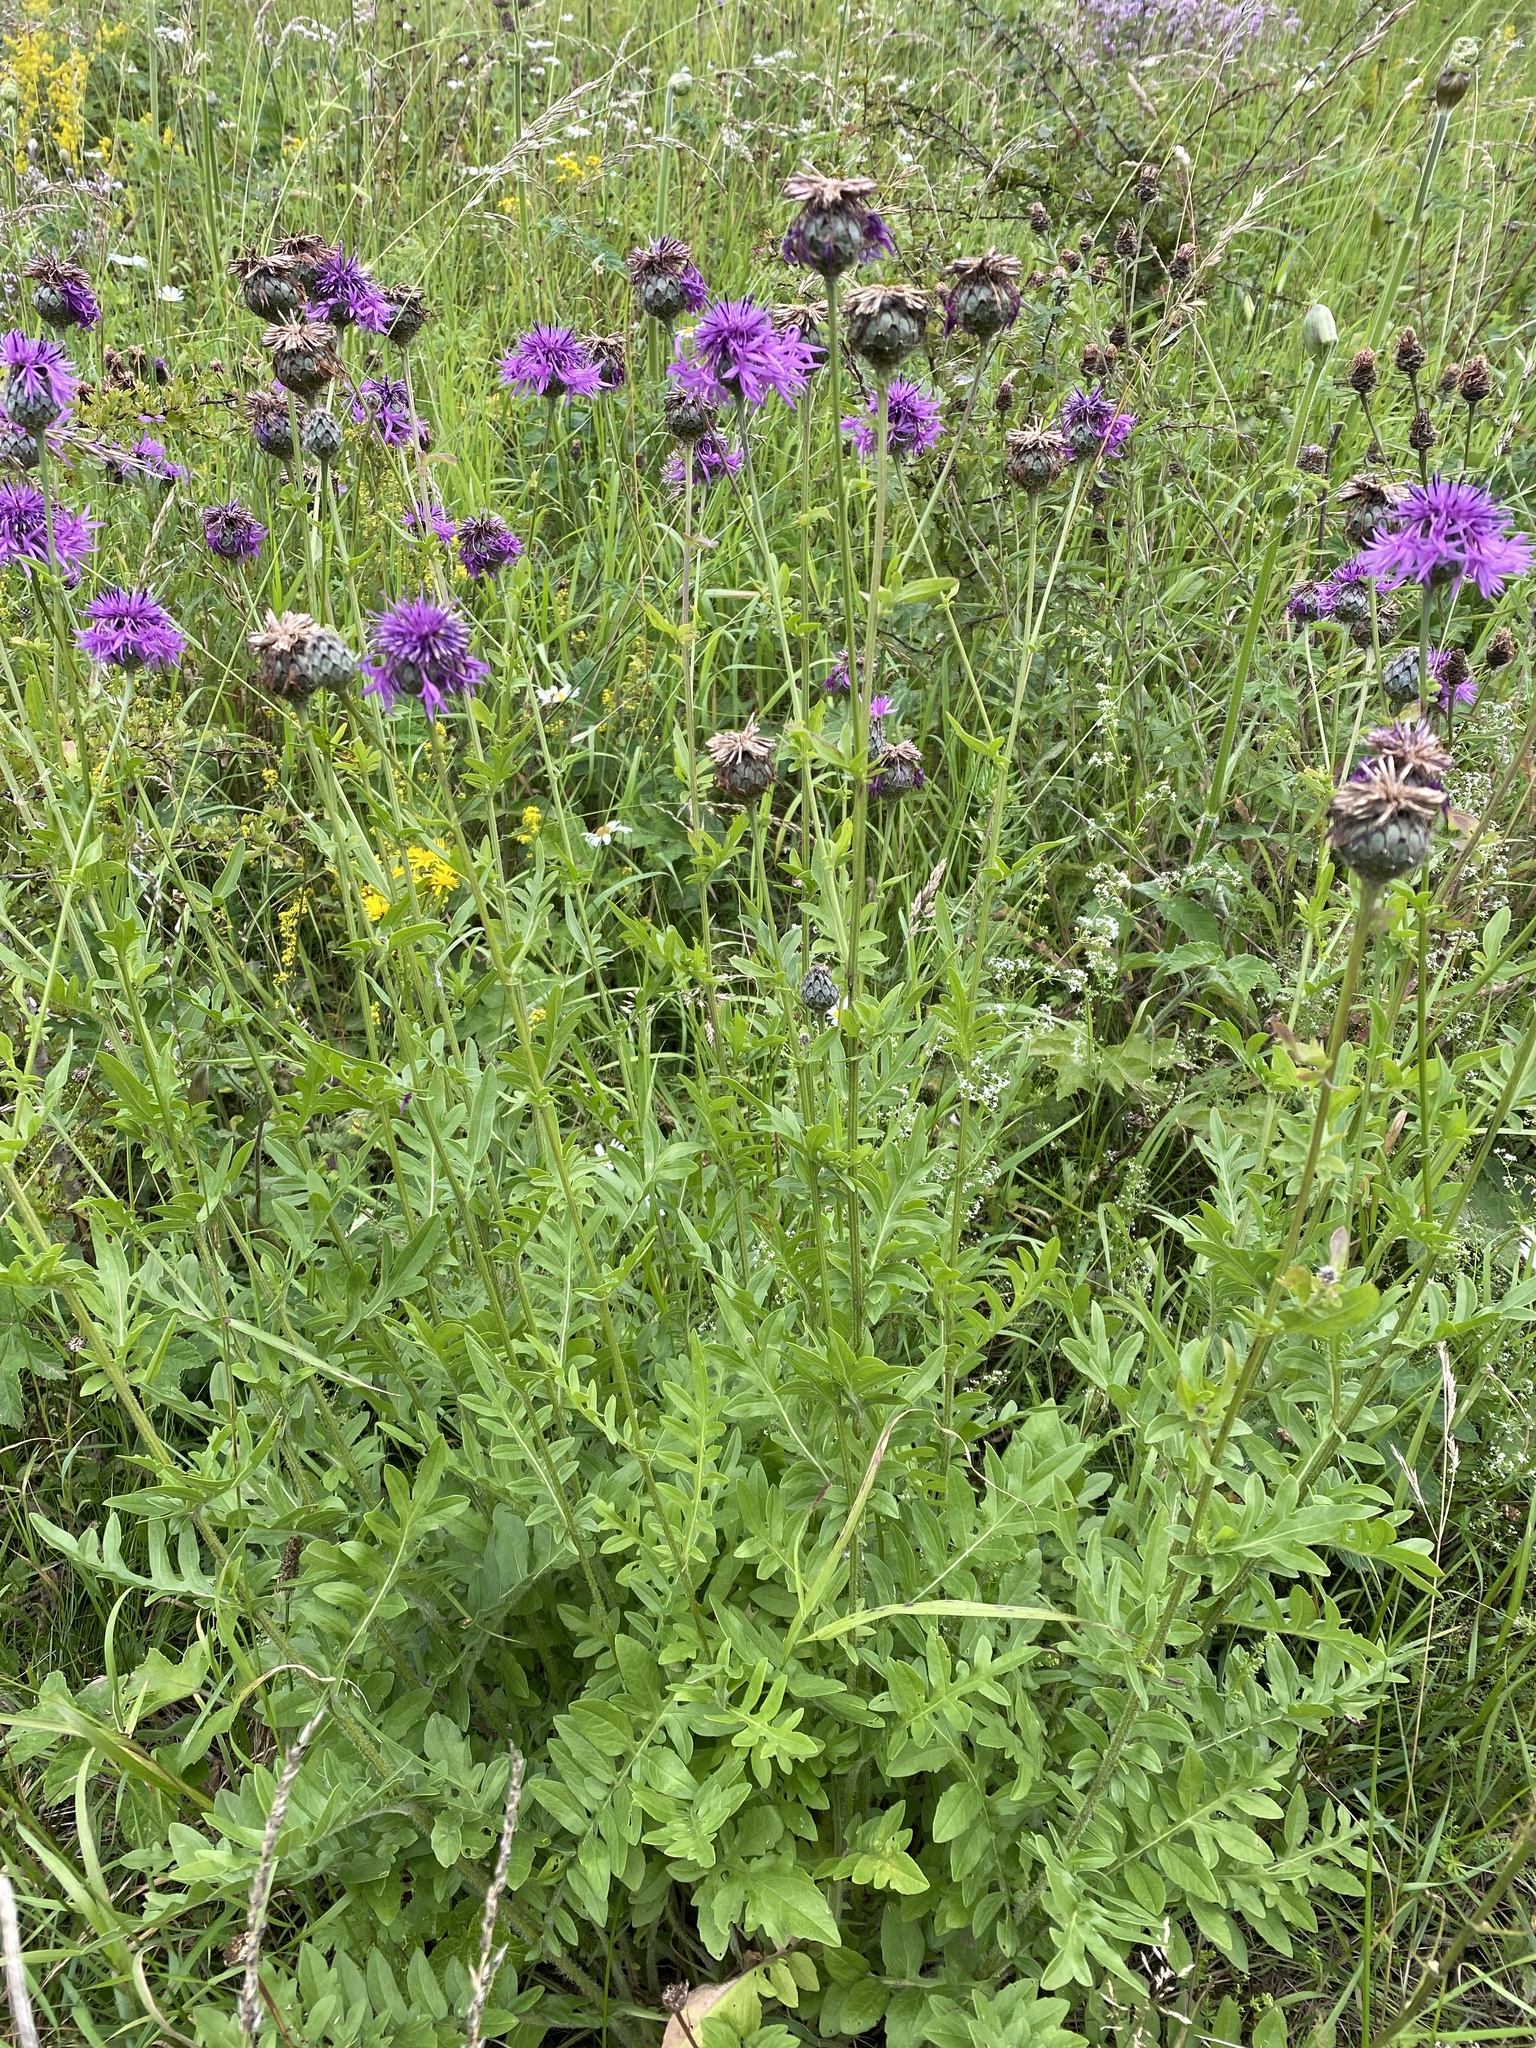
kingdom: Plantae
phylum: Tracheophyta
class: Magnoliopsida
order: Asterales
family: Asteraceae
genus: Centaurea
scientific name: Centaurea scabiosa
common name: Greater knapweed
